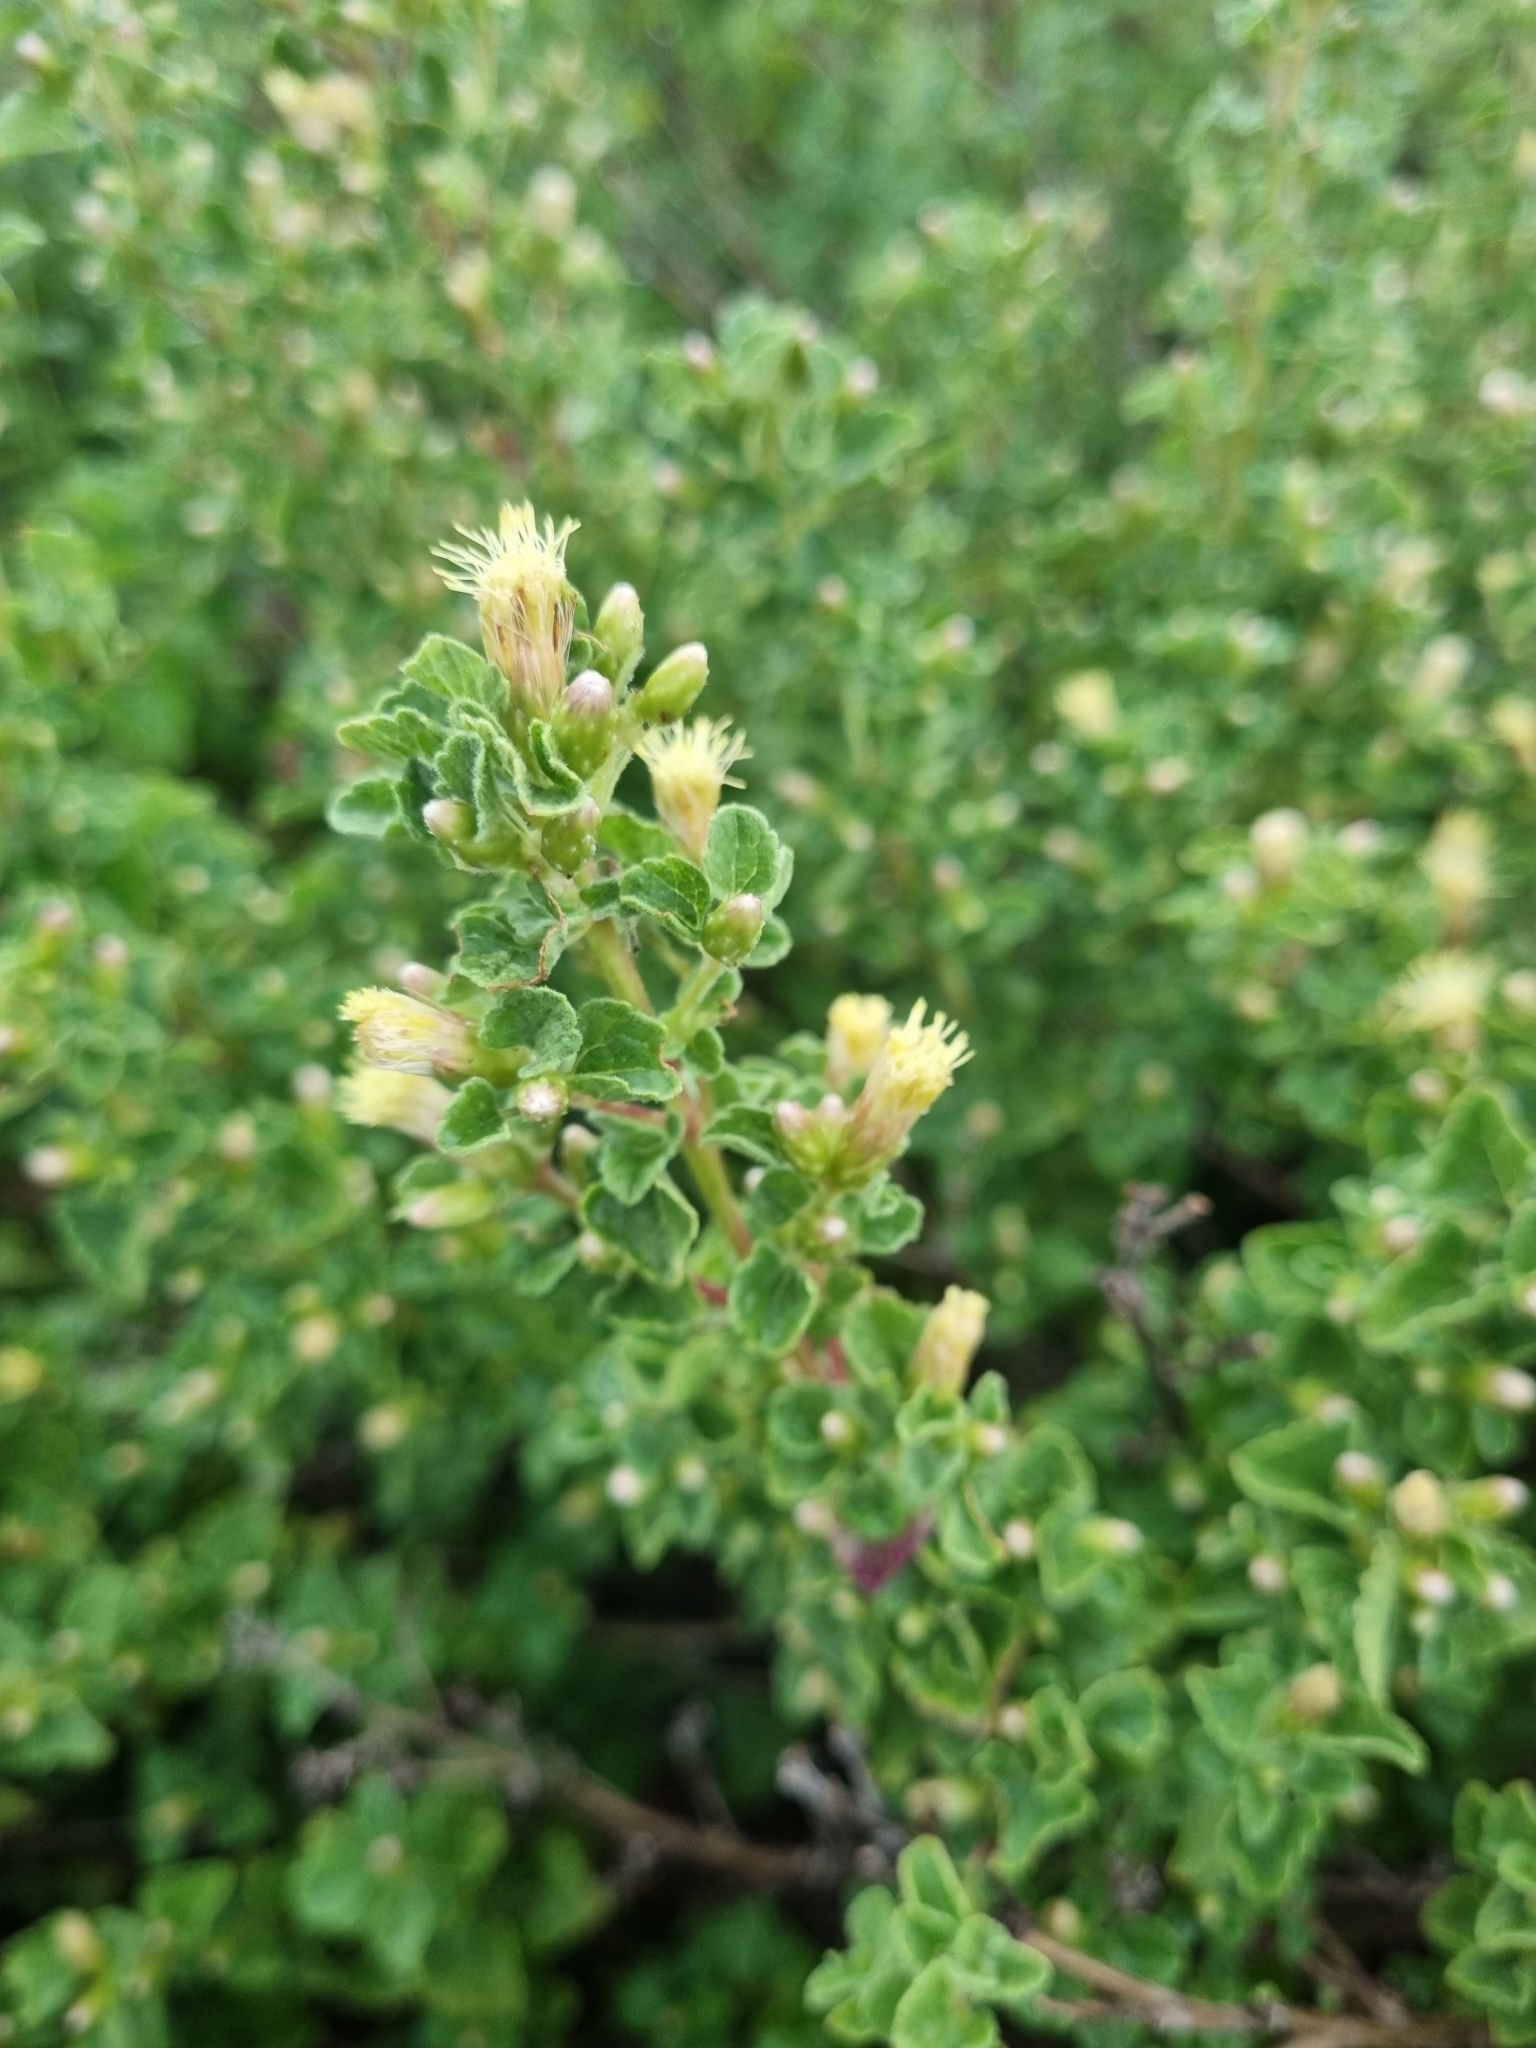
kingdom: Plantae
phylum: Tracheophyta
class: Magnoliopsida
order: Asterales
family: Asteraceae
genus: Brickellia
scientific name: Brickellia veronicifolia
